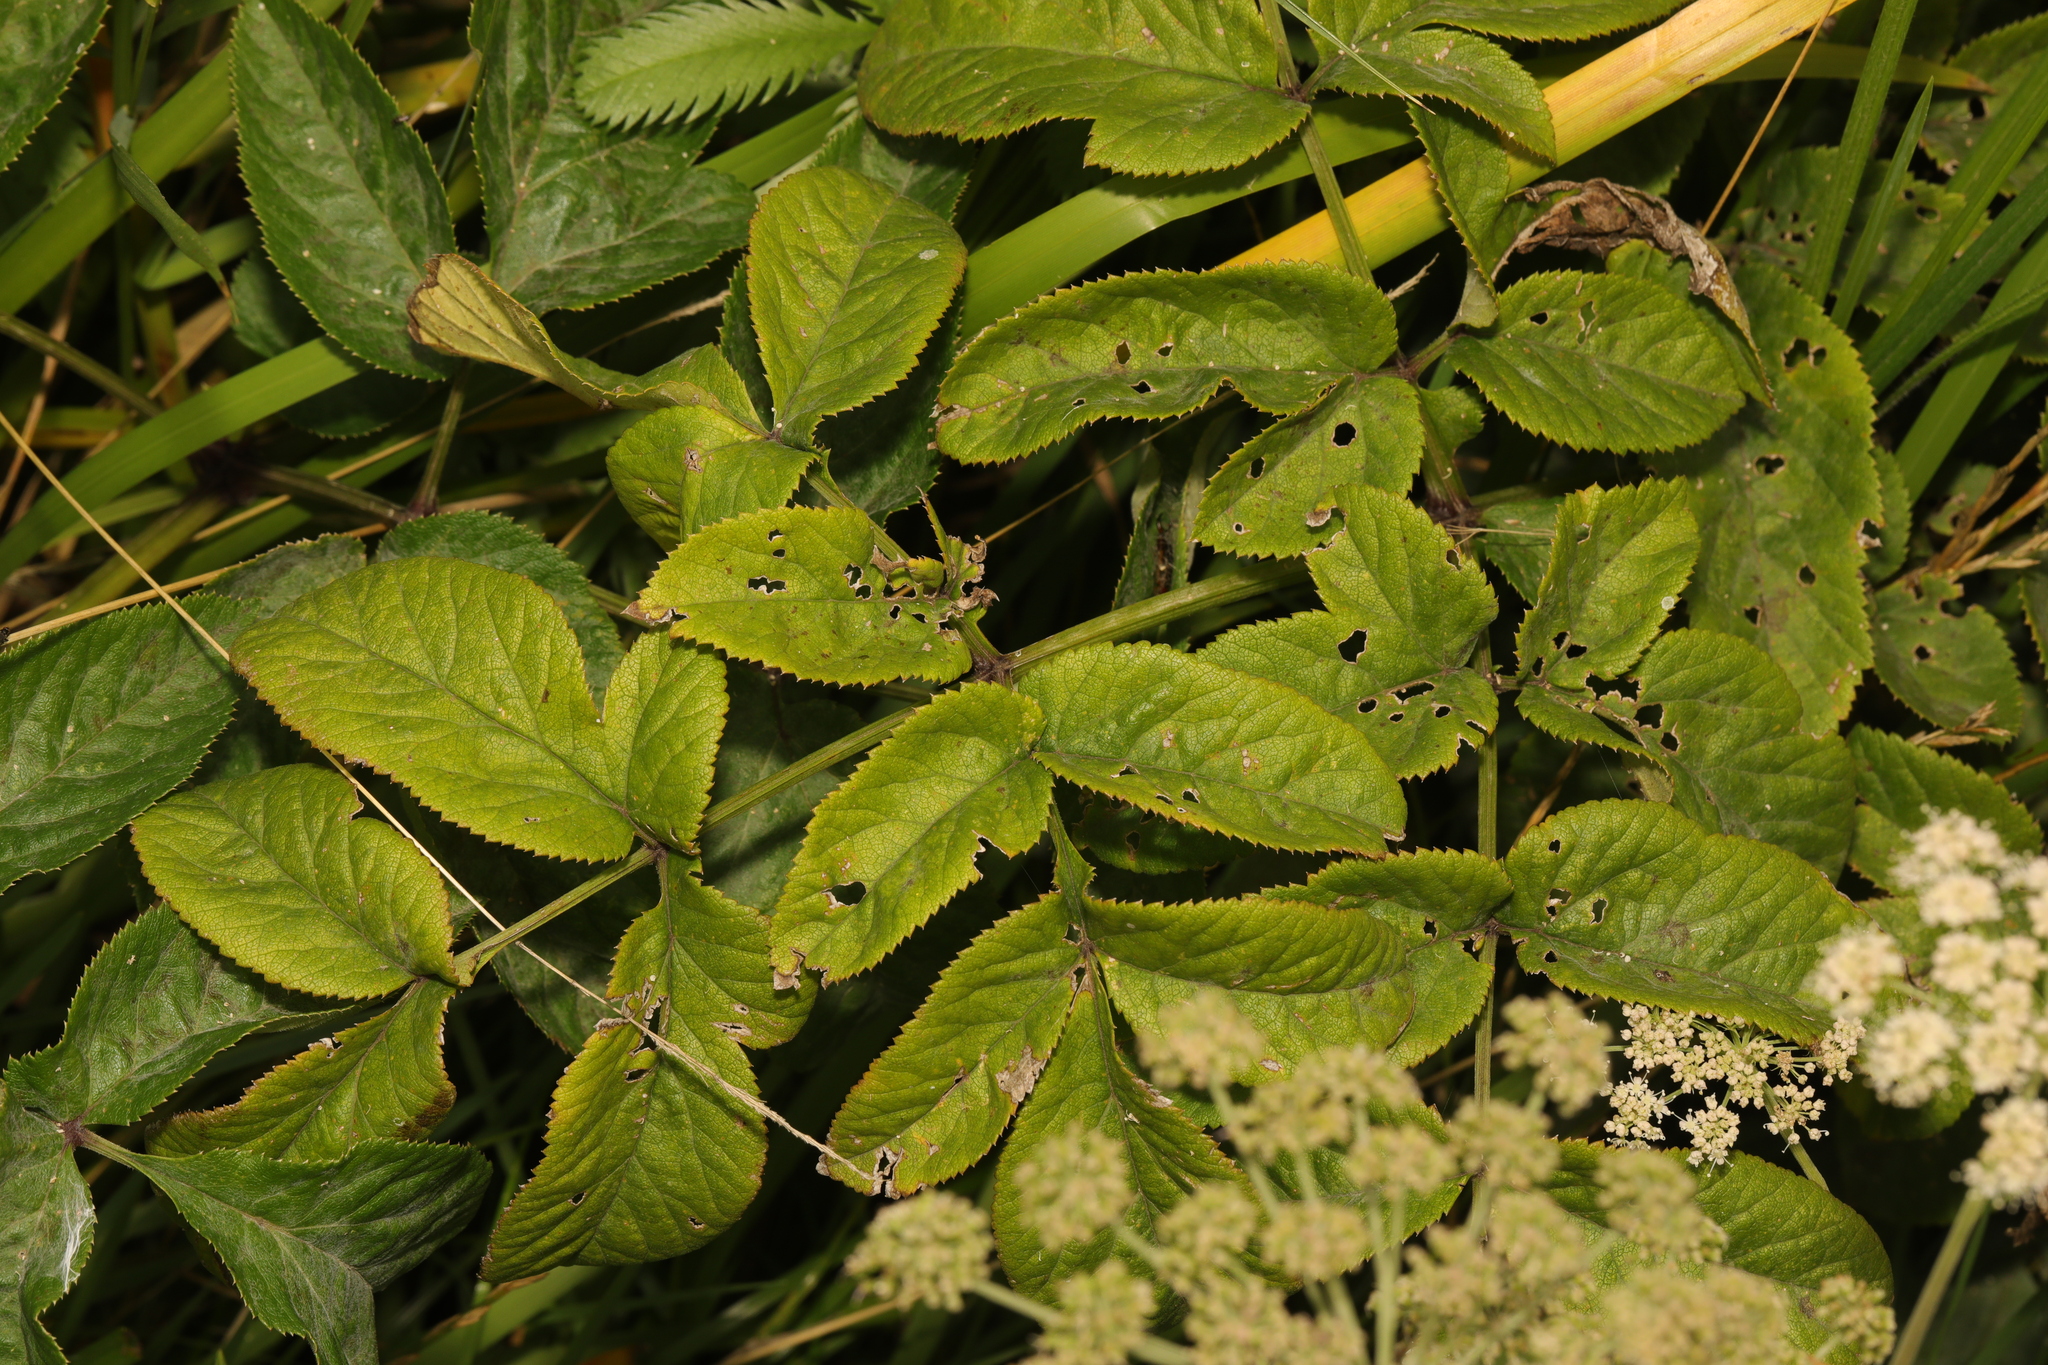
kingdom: Plantae
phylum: Tracheophyta
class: Magnoliopsida
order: Apiales
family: Apiaceae
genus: Angelica
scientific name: Angelica sylvestris
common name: Wild angelica
